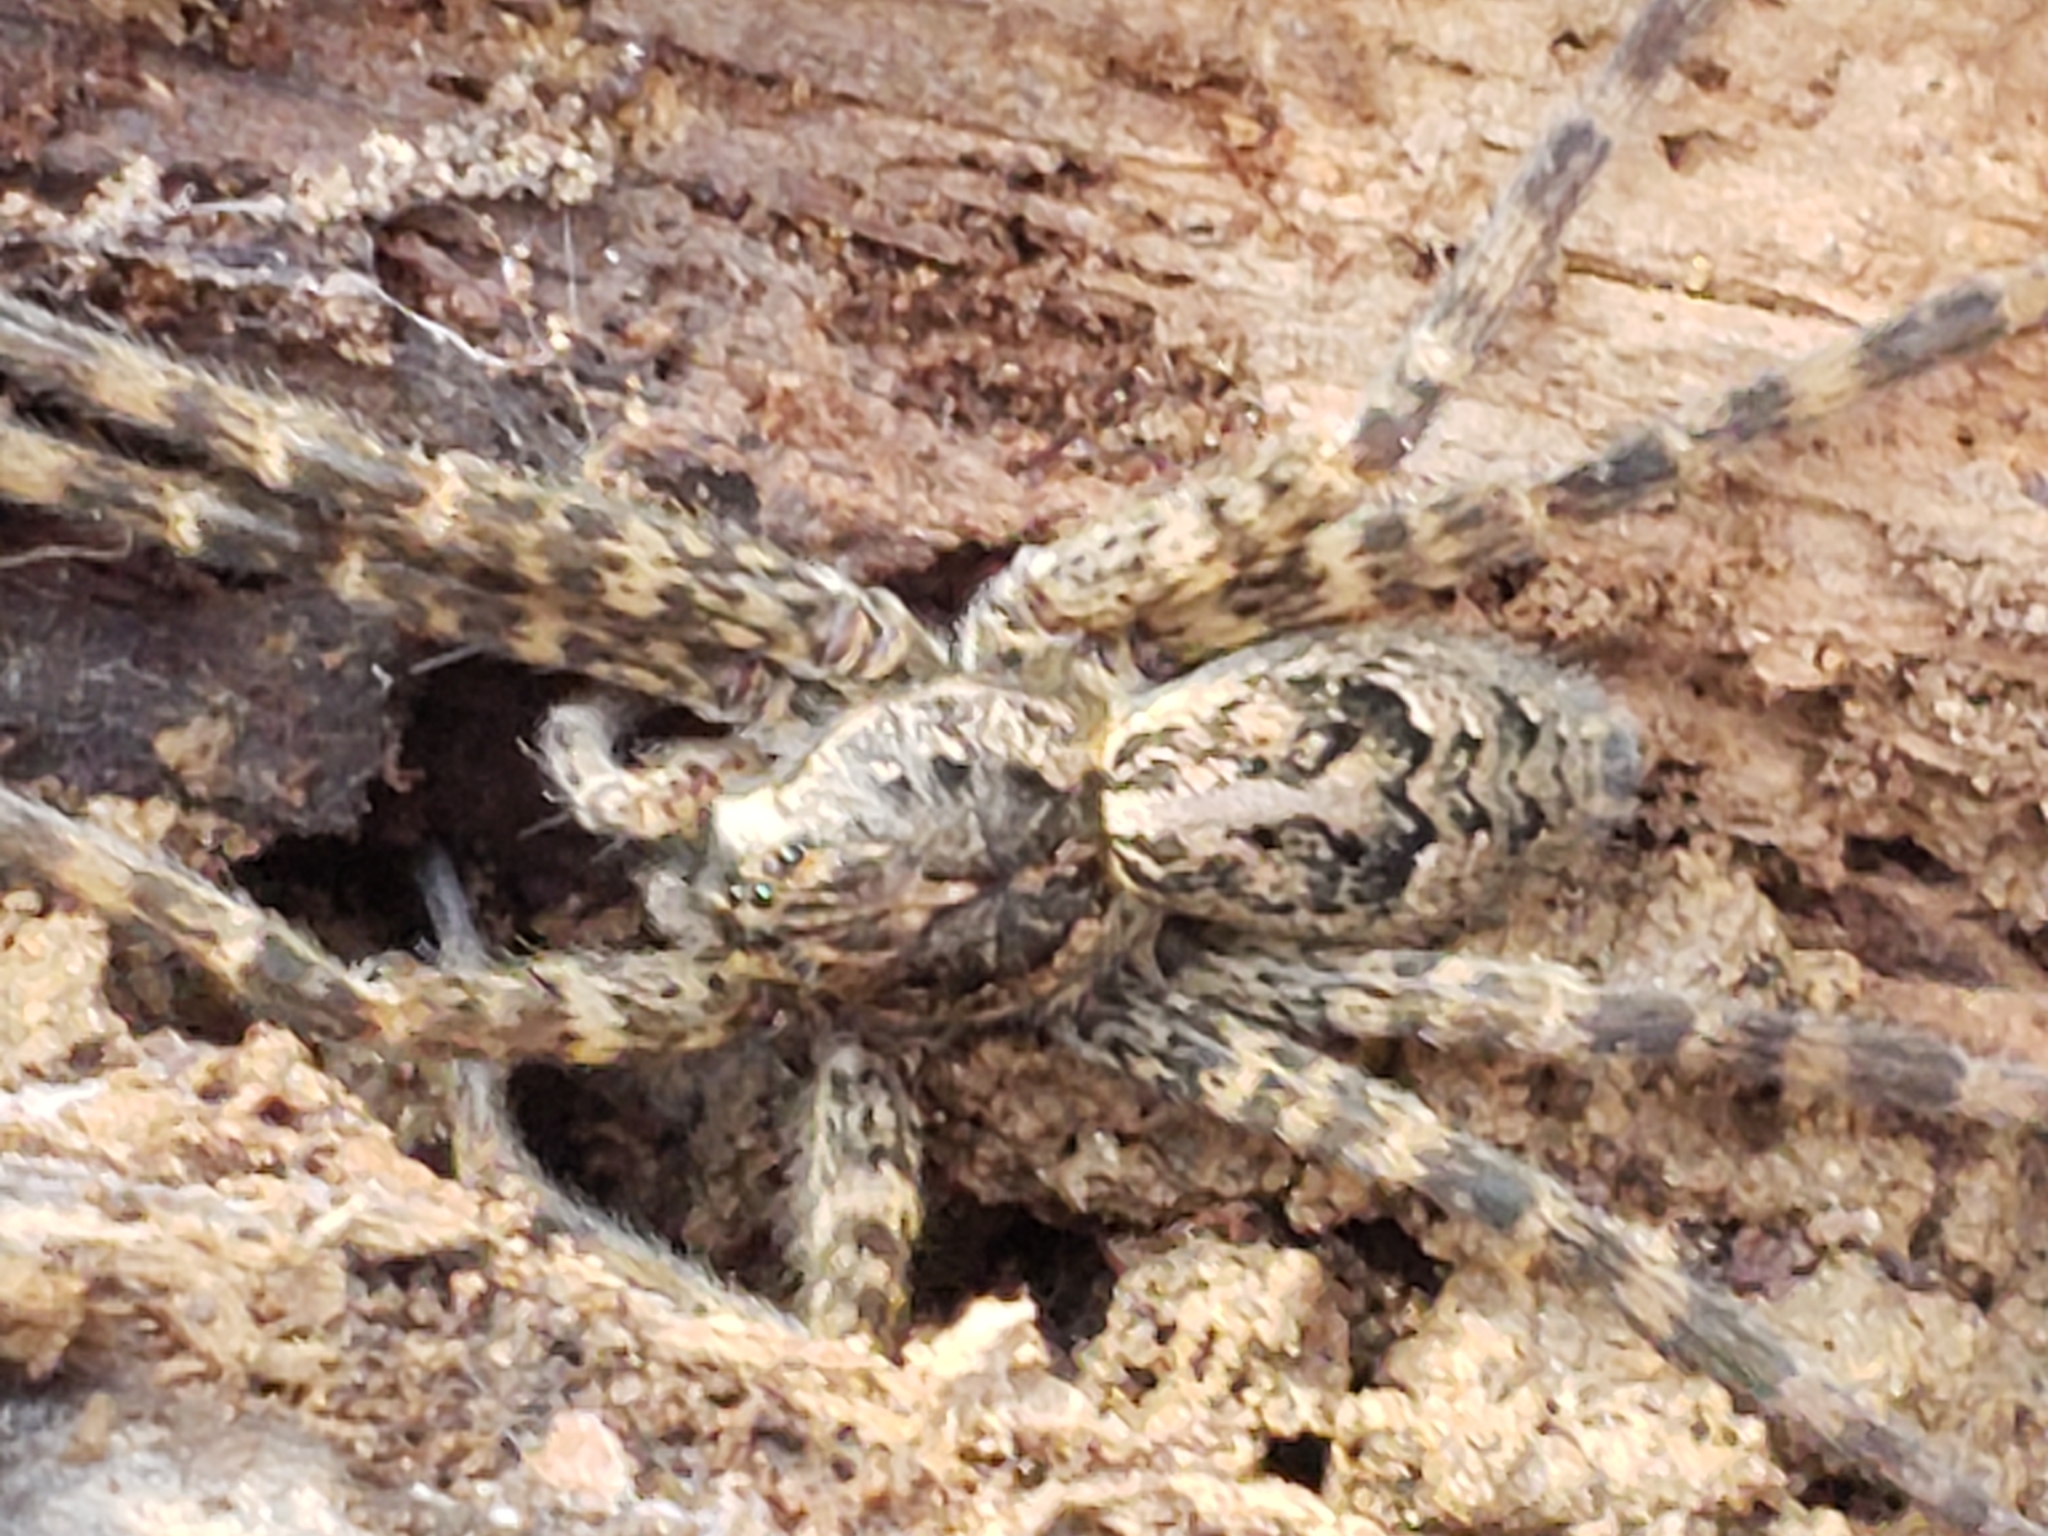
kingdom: Animalia
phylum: Arthropoda
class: Arachnida
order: Araneae
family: Pisauridae
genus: Dolomedes
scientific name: Dolomedes tenebrosus
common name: Dark fishing spider
